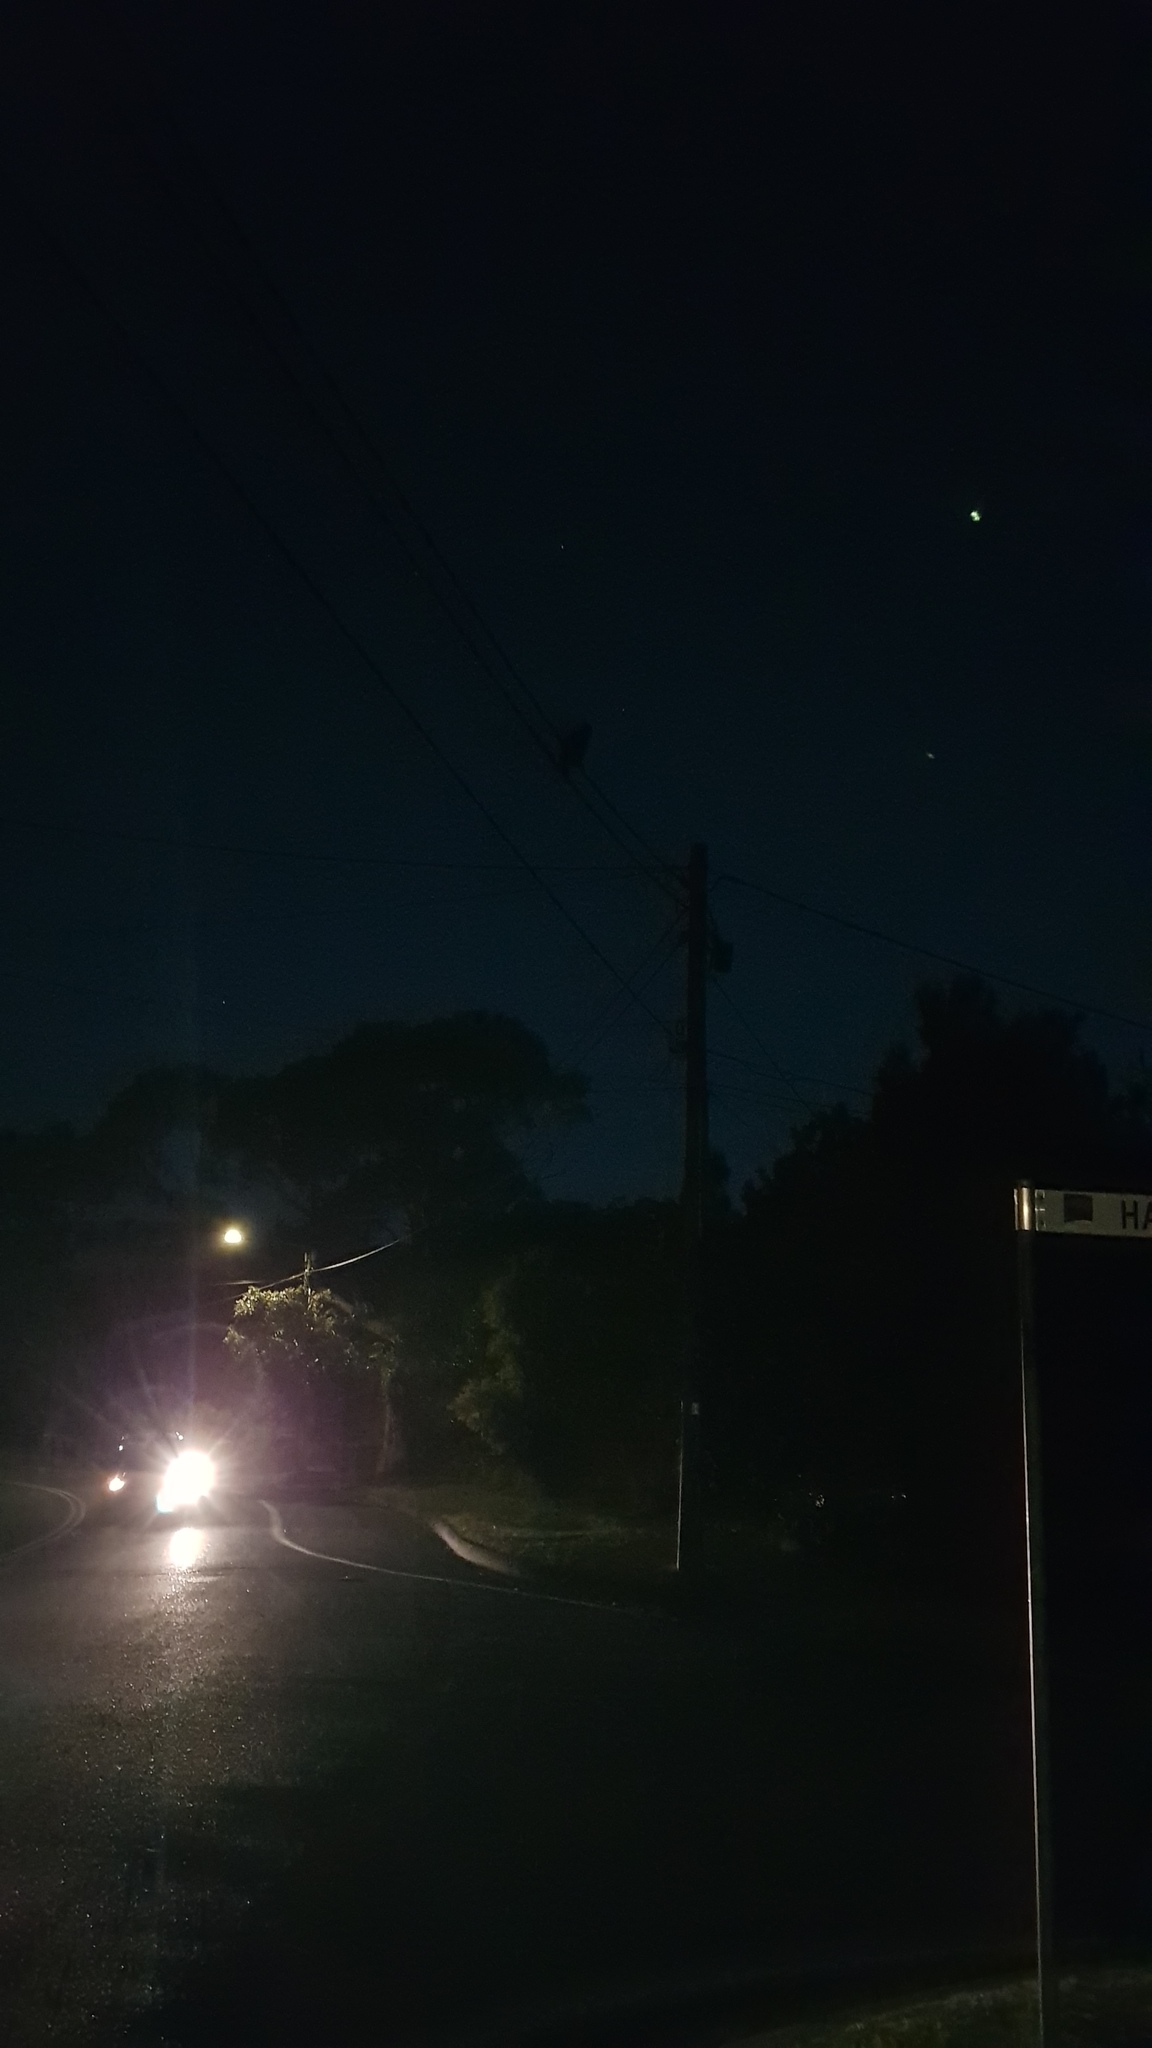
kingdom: Animalia
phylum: Chordata
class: Aves
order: Strigiformes
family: Strigidae
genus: Ninox
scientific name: Ninox strenua
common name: Powerful owl
